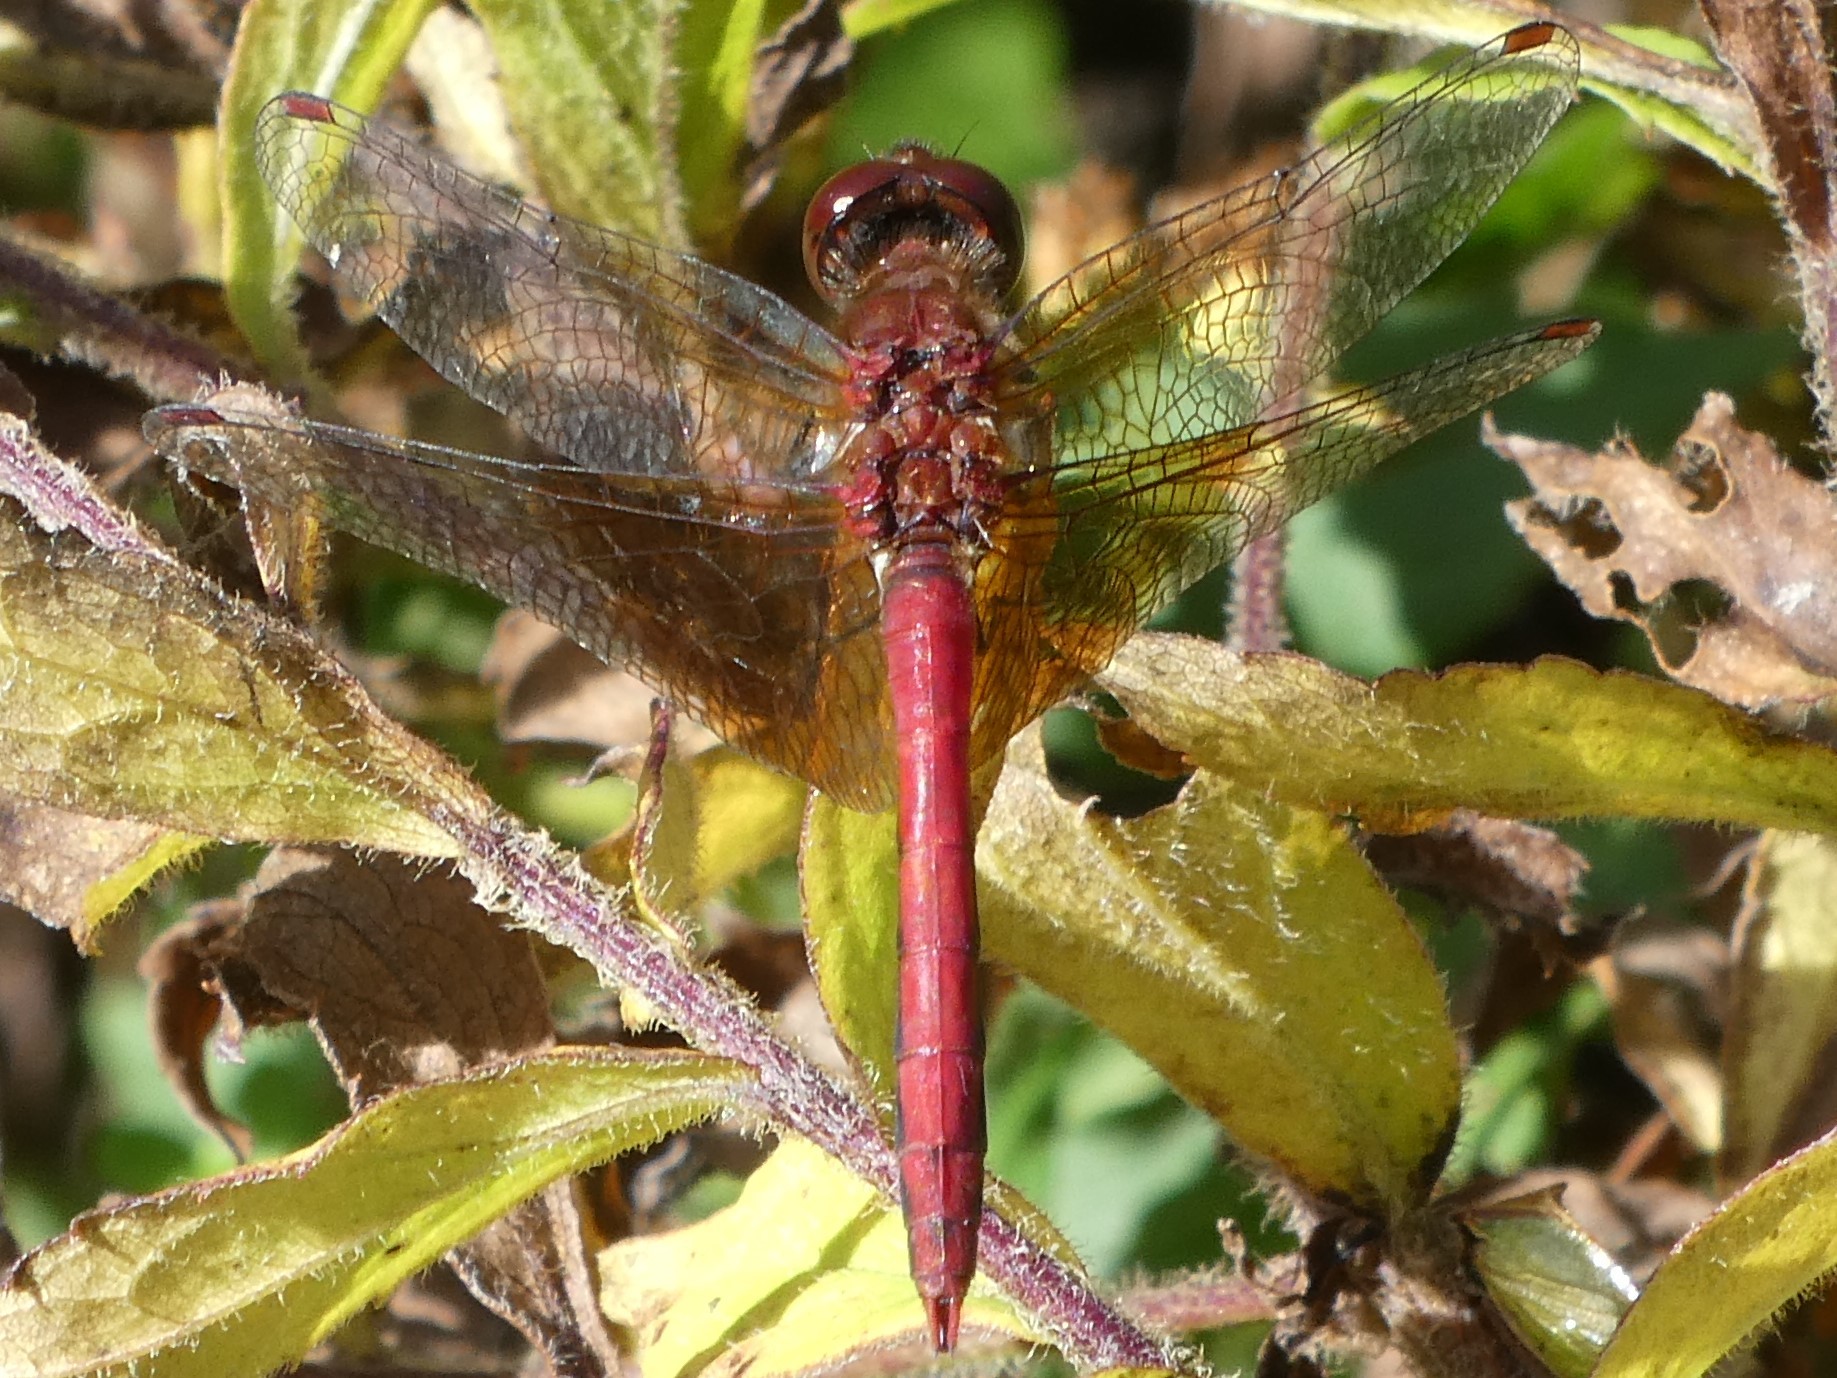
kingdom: Animalia
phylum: Arthropoda
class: Insecta
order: Odonata
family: Libellulidae
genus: Sympetrum
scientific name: Sympetrum semicinctum
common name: Band-winged meadowhawk
